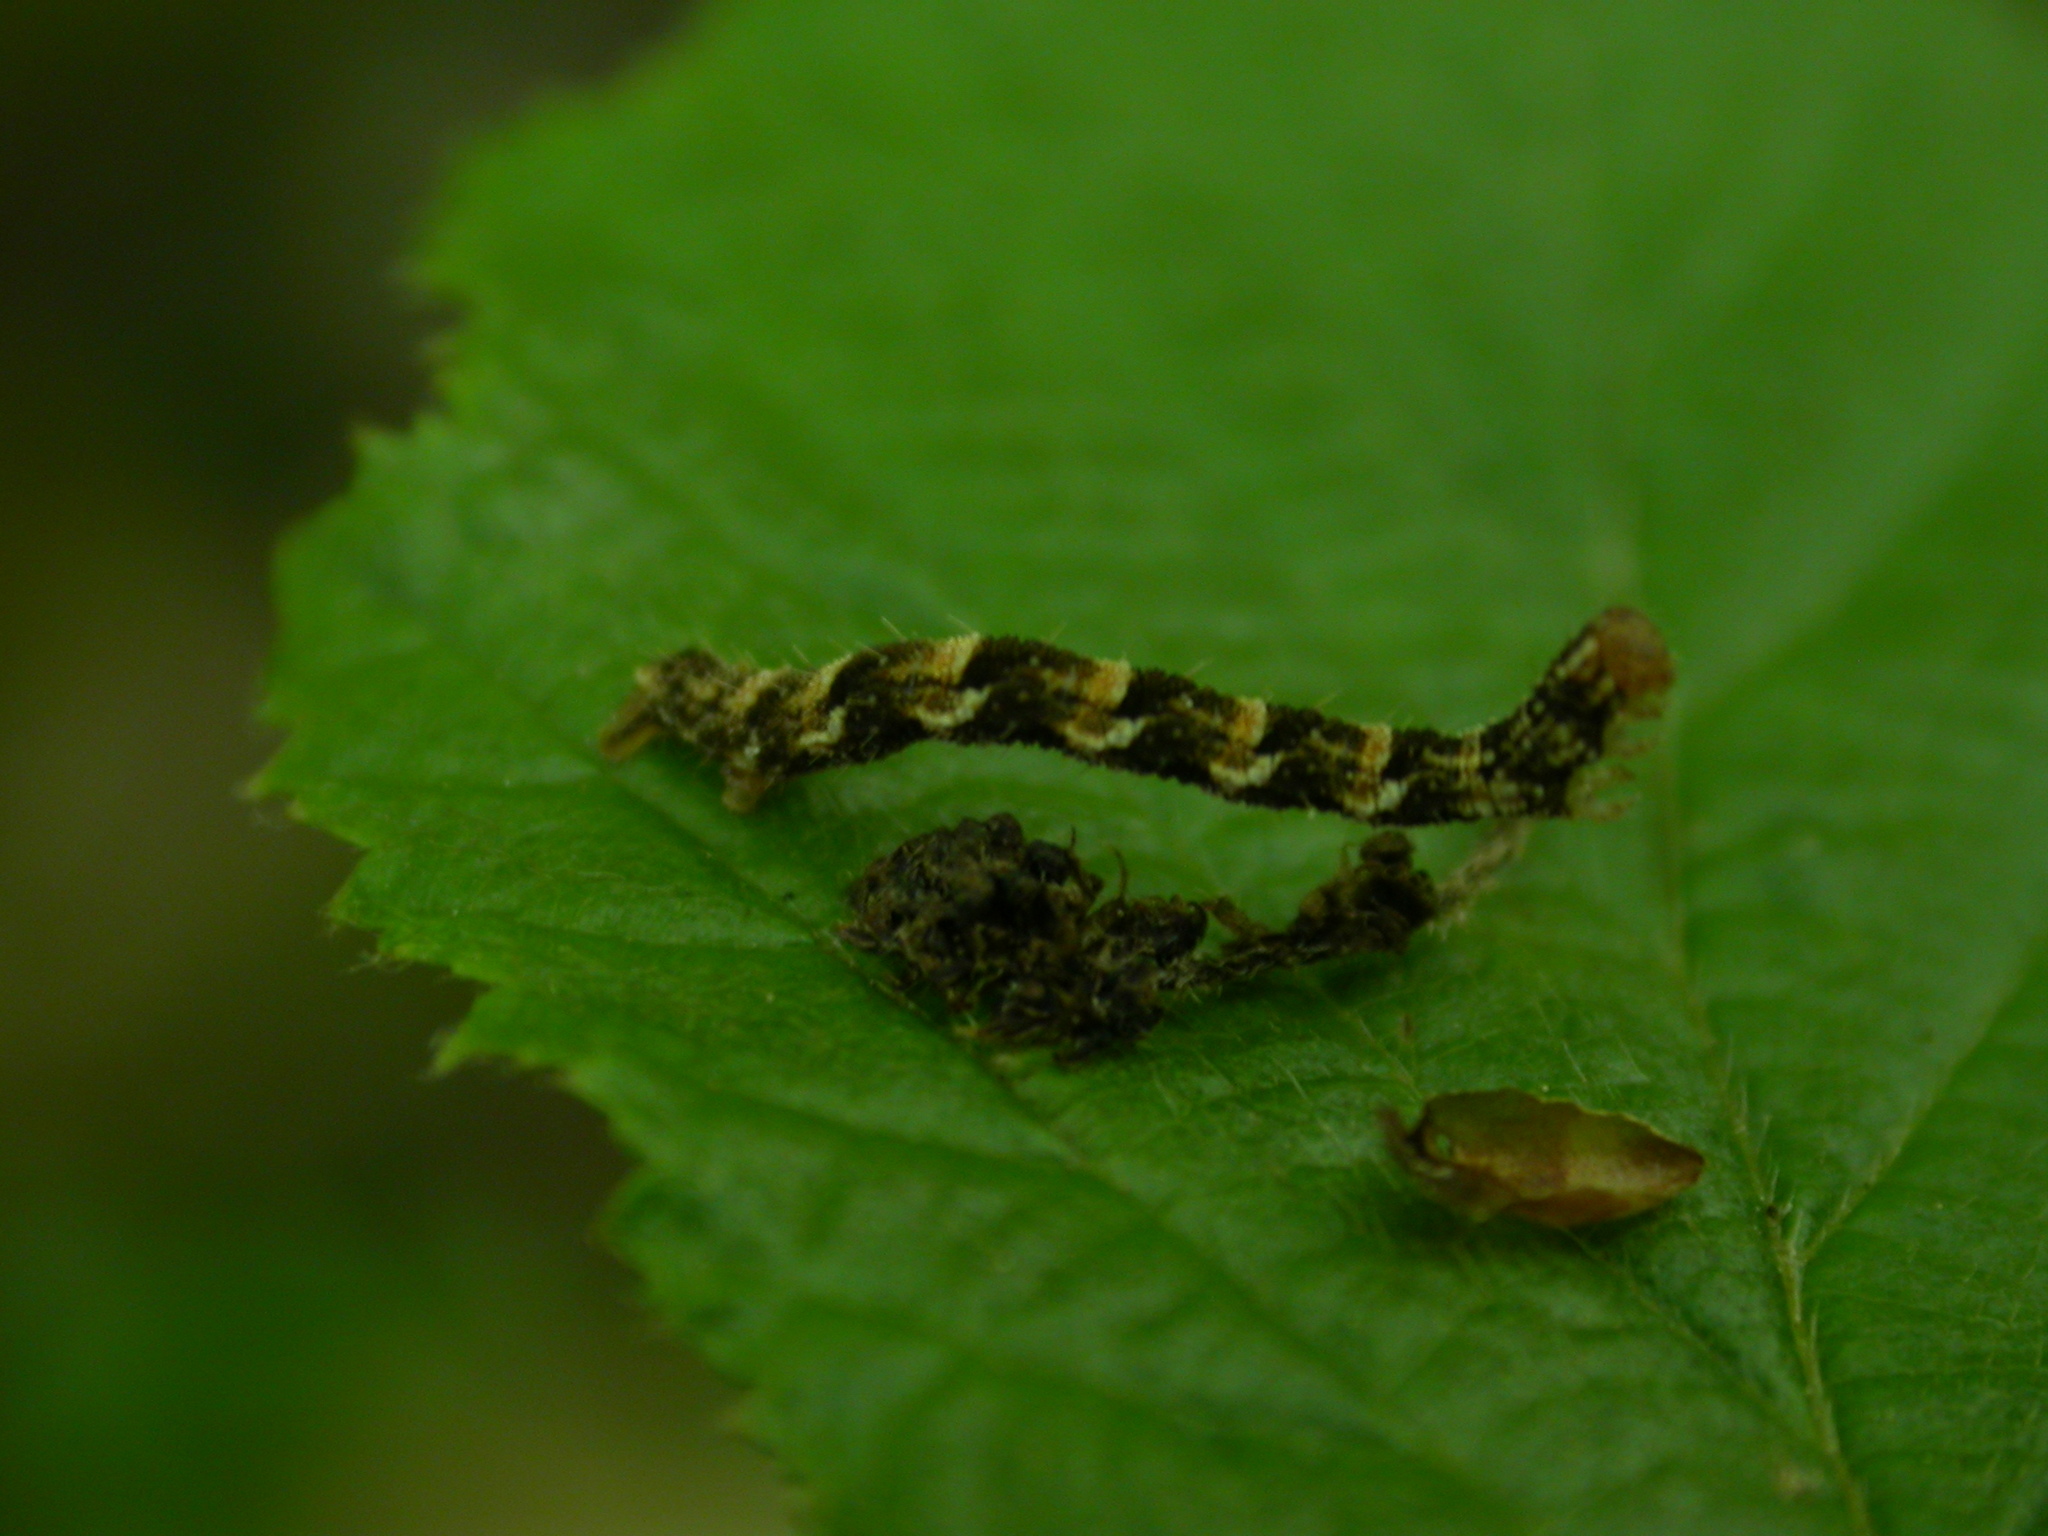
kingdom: Animalia
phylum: Arthropoda
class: Insecta
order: Lepidoptera
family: Geometridae
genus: Erannis
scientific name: Erannis defoliaria
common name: Mottled umber
